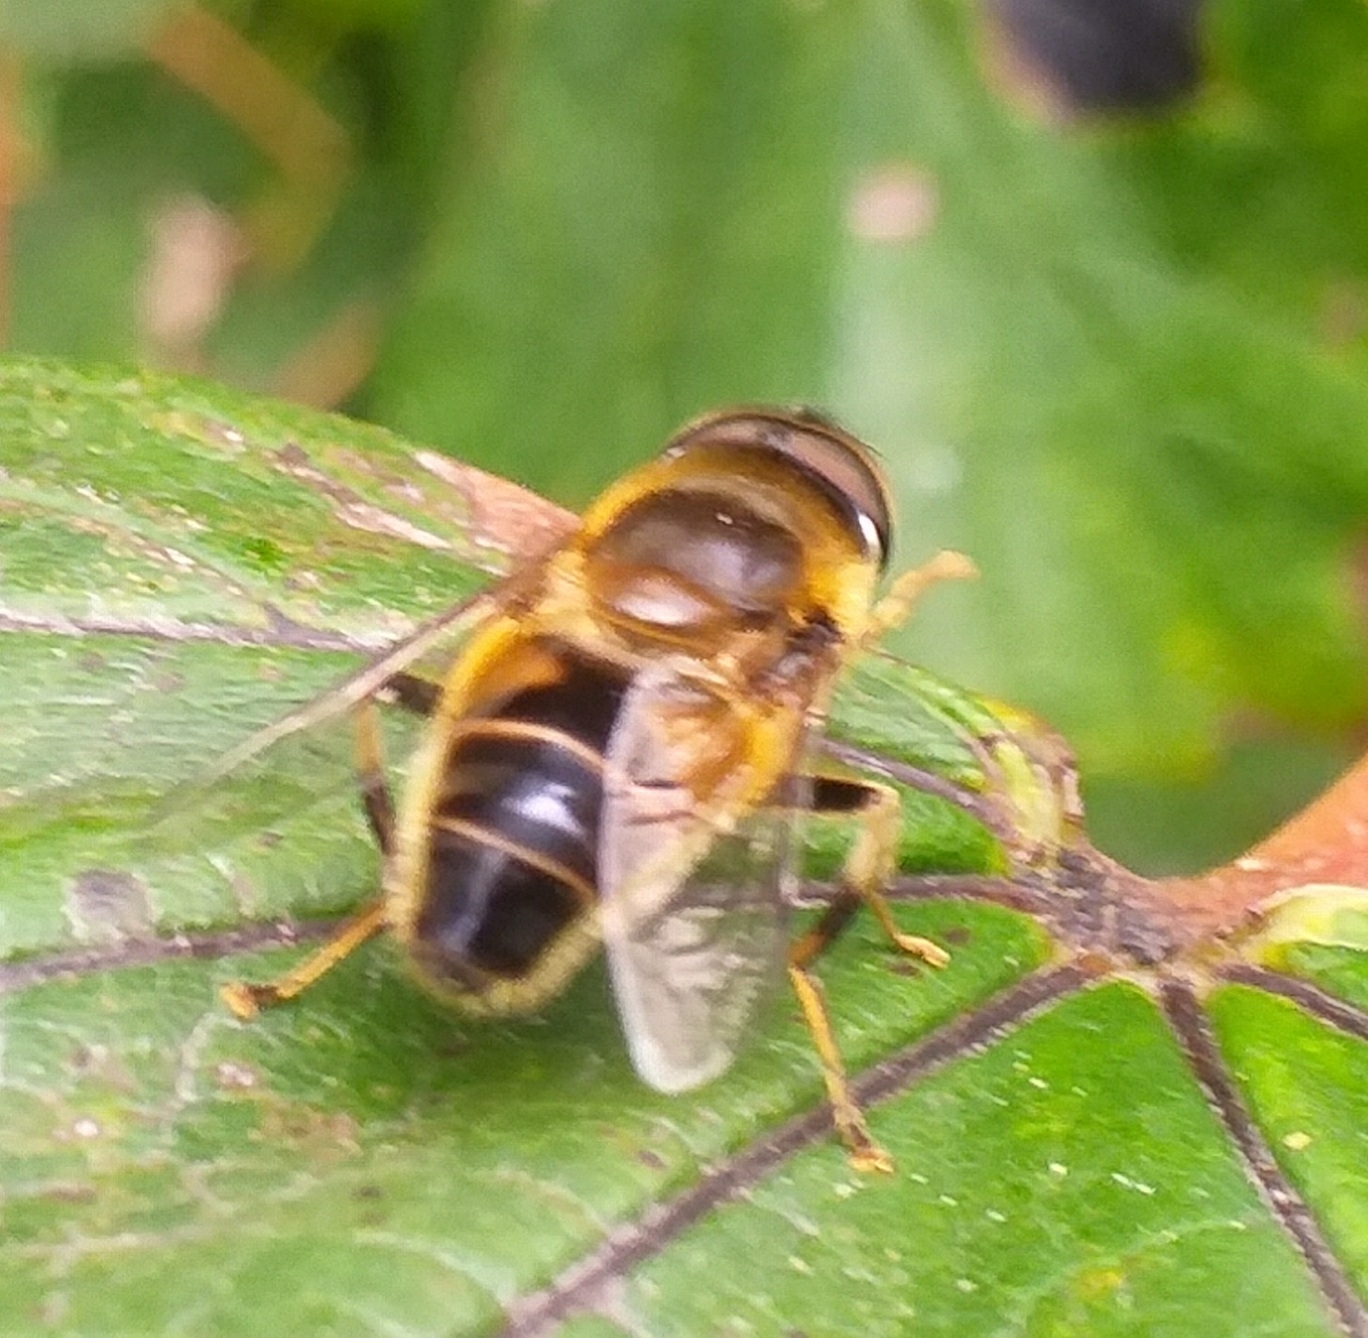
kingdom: Animalia
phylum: Arthropoda
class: Insecta
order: Diptera
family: Syrphidae
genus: Eristalis
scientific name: Eristalis pertinax
